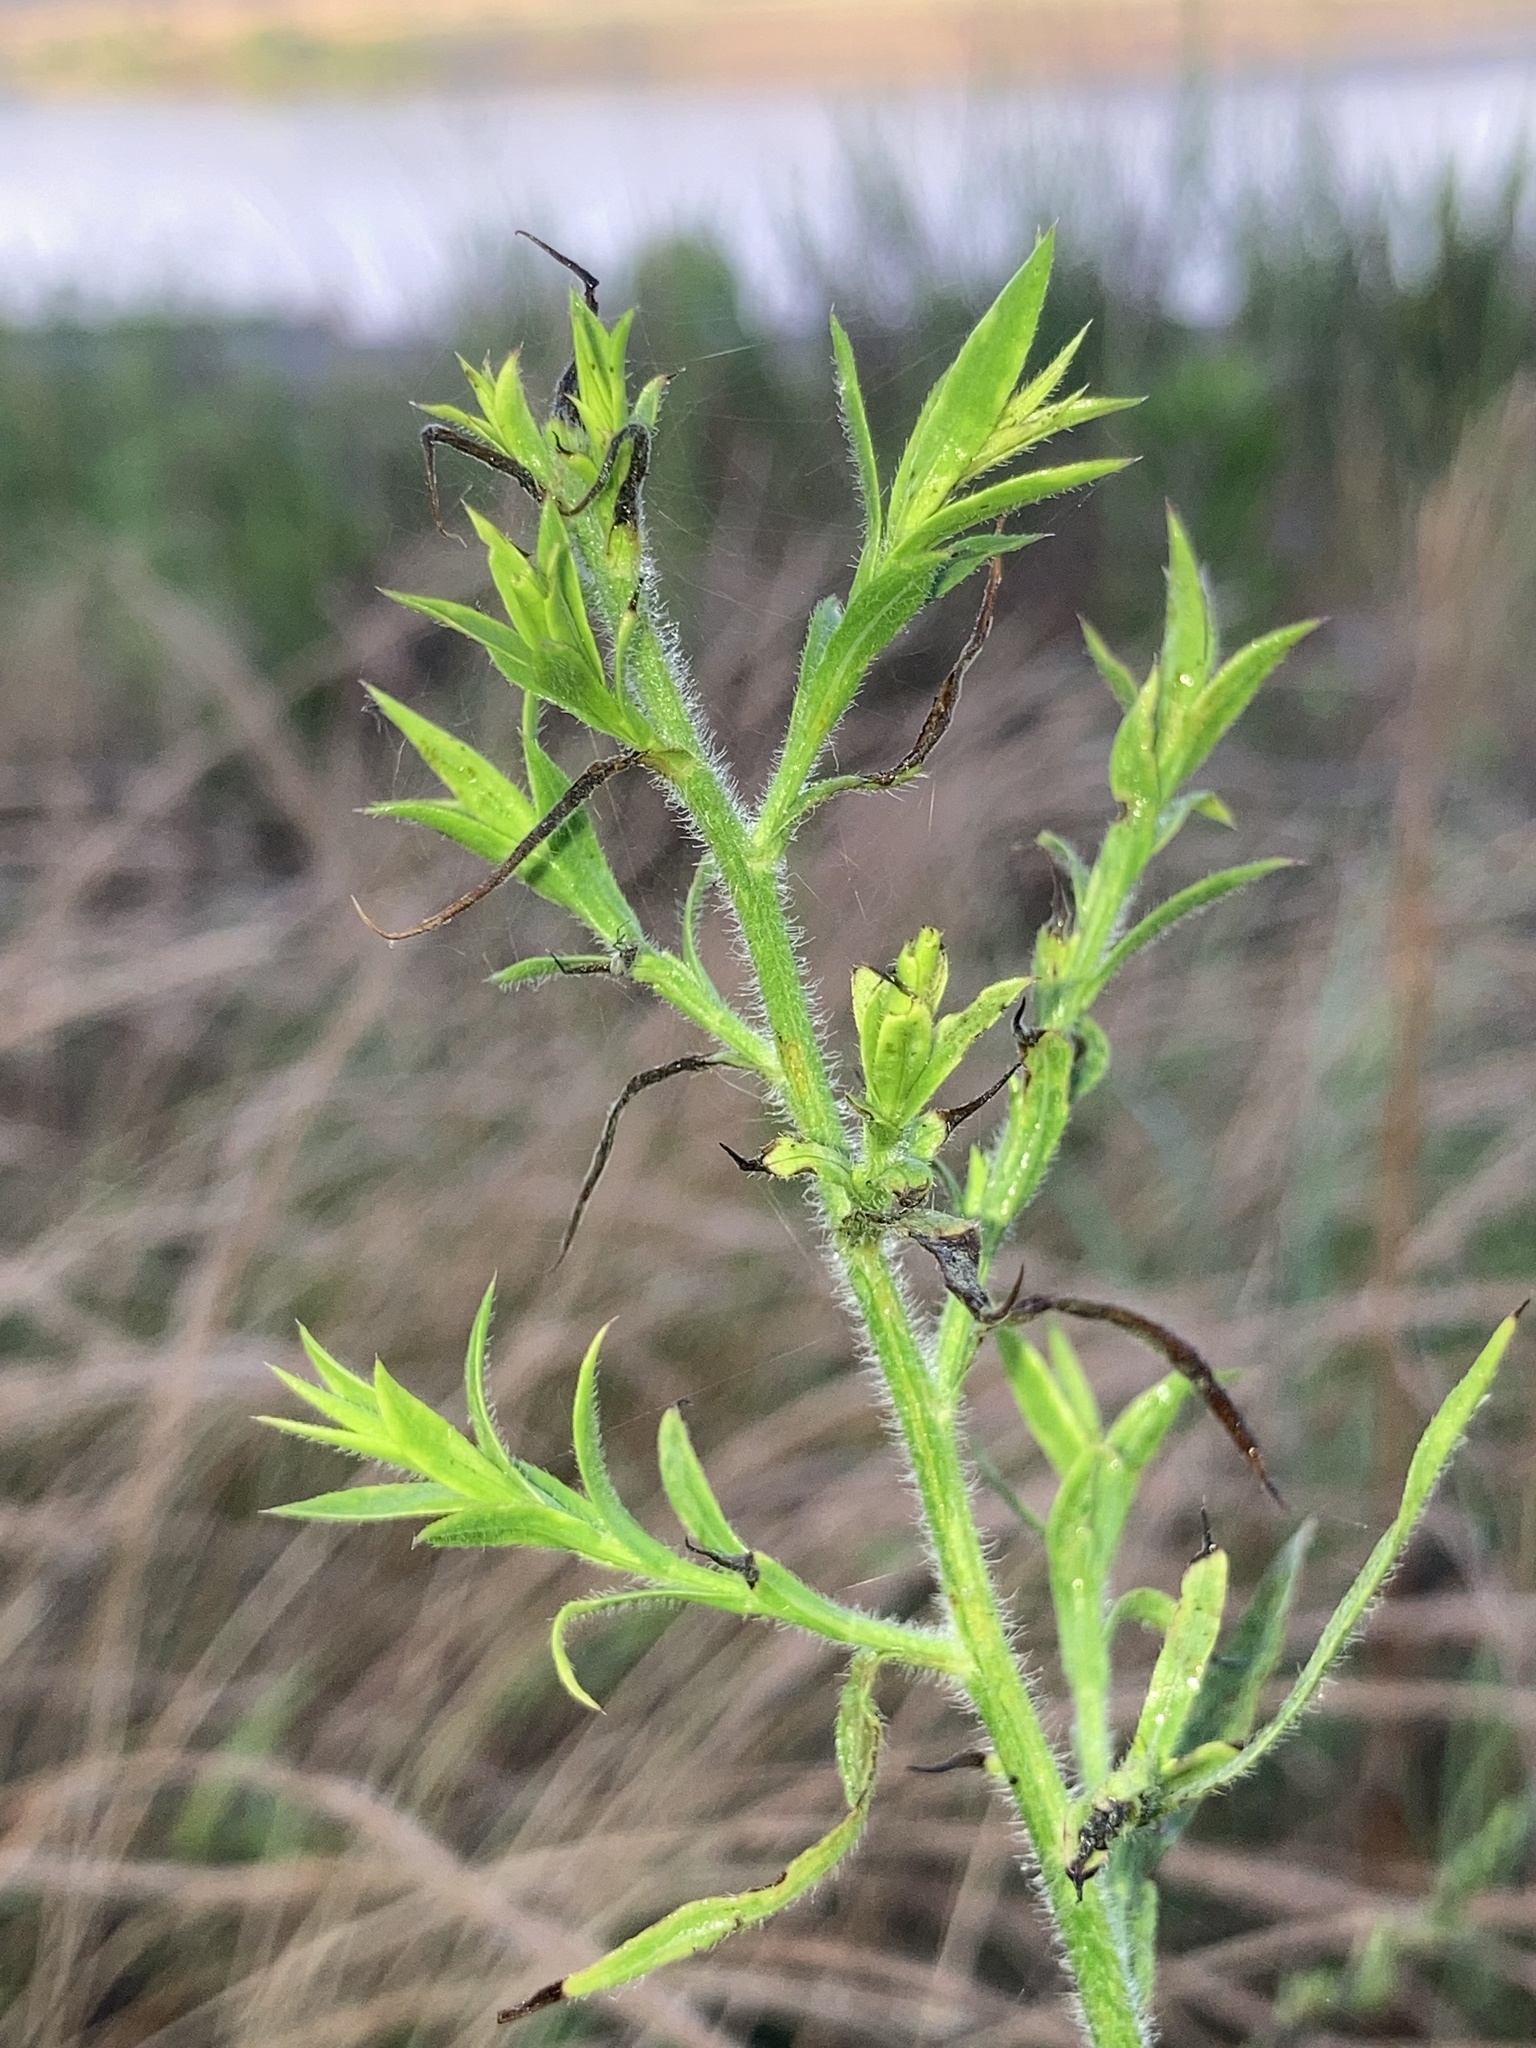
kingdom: Plantae
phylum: Tracheophyta
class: Magnoliopsida
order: Asterales
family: Asteraceae
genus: Symphyotrichum
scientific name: Symphyotrichum pilosum
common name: Awl aster
